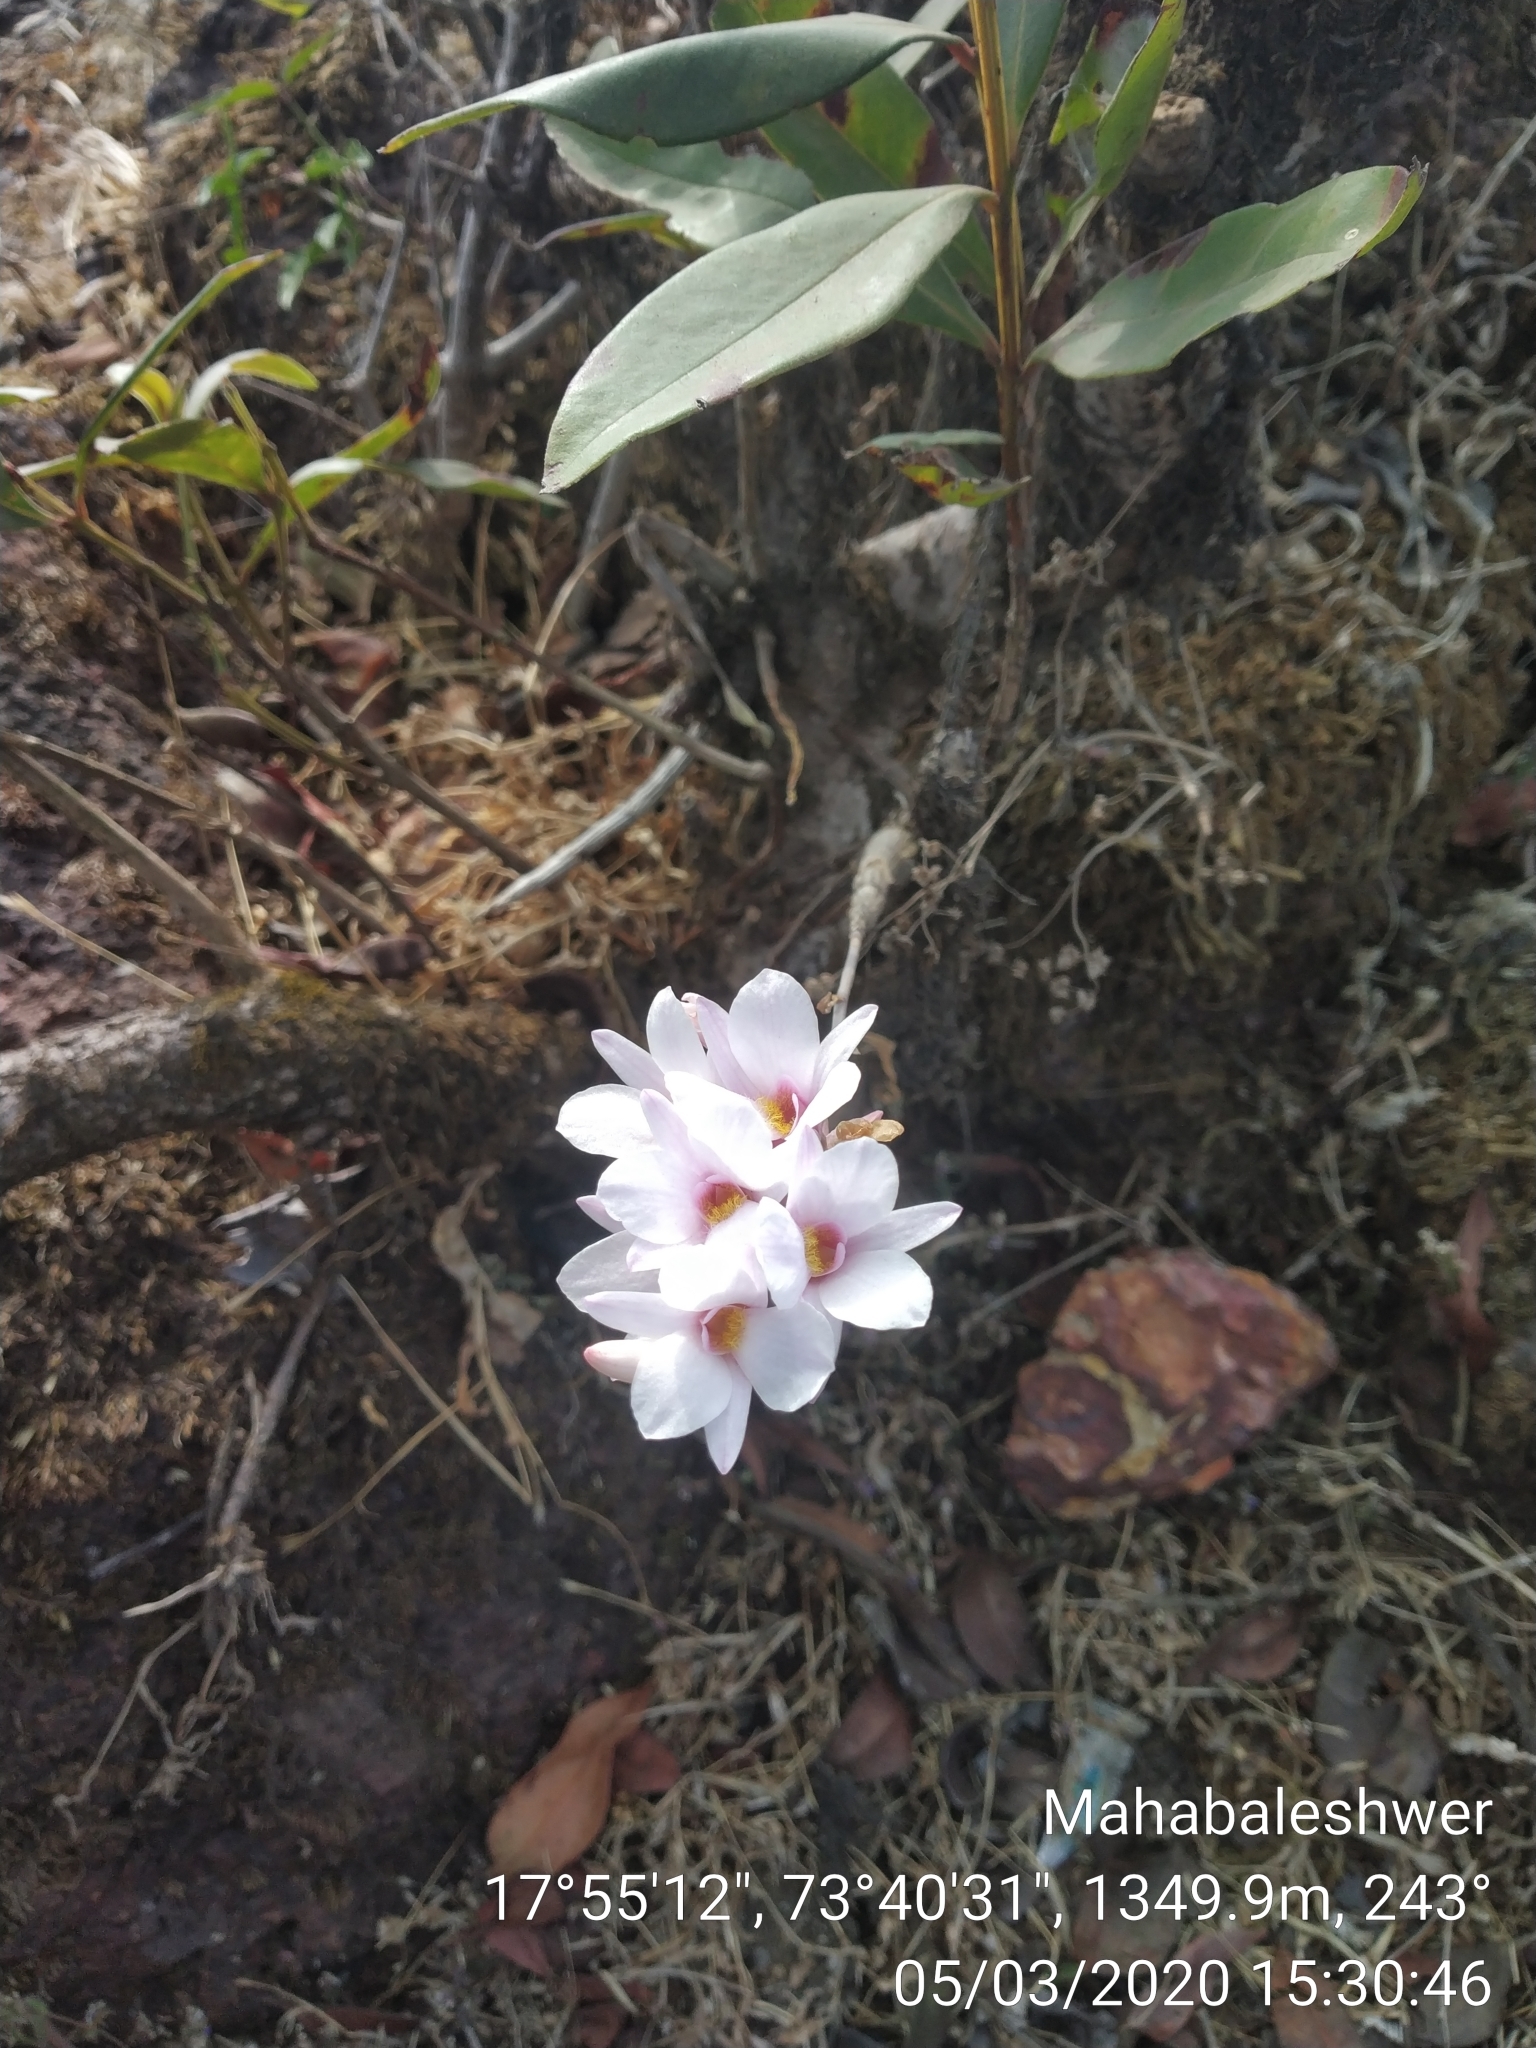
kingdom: Plantae
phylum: Tracheophyta
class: Liliopsida
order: Asparagales
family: Orchidaceae
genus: Dendrobium
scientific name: Dendrobium barbatulum
